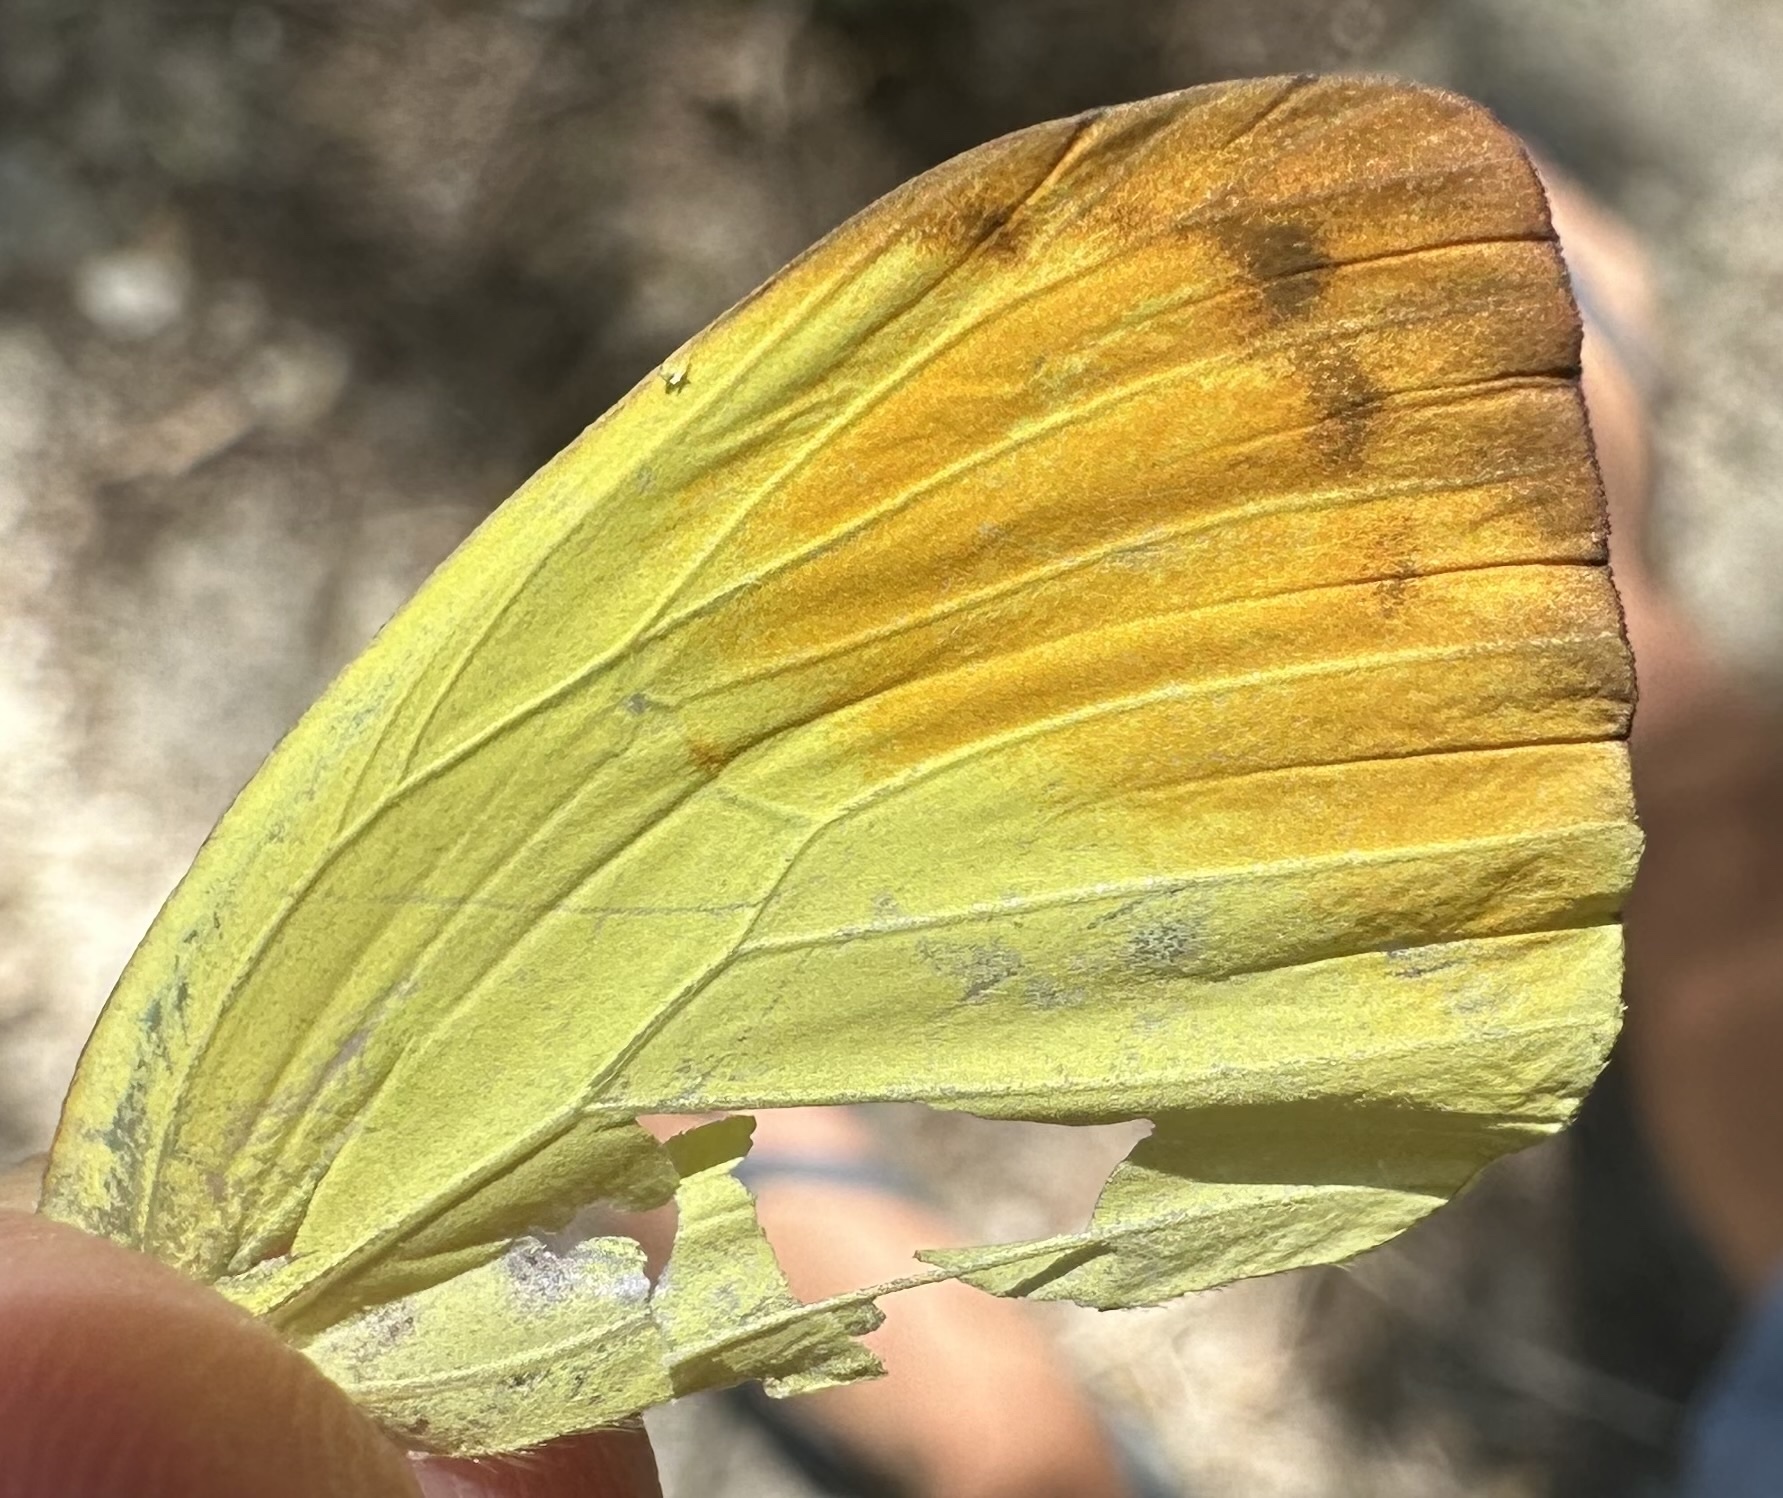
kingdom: Animalia
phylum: Arthropoda
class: Insecta
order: Lepidoptera
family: Pieridae
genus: Eronia
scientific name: Eronia leda
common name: Autumn leaf vagrant
